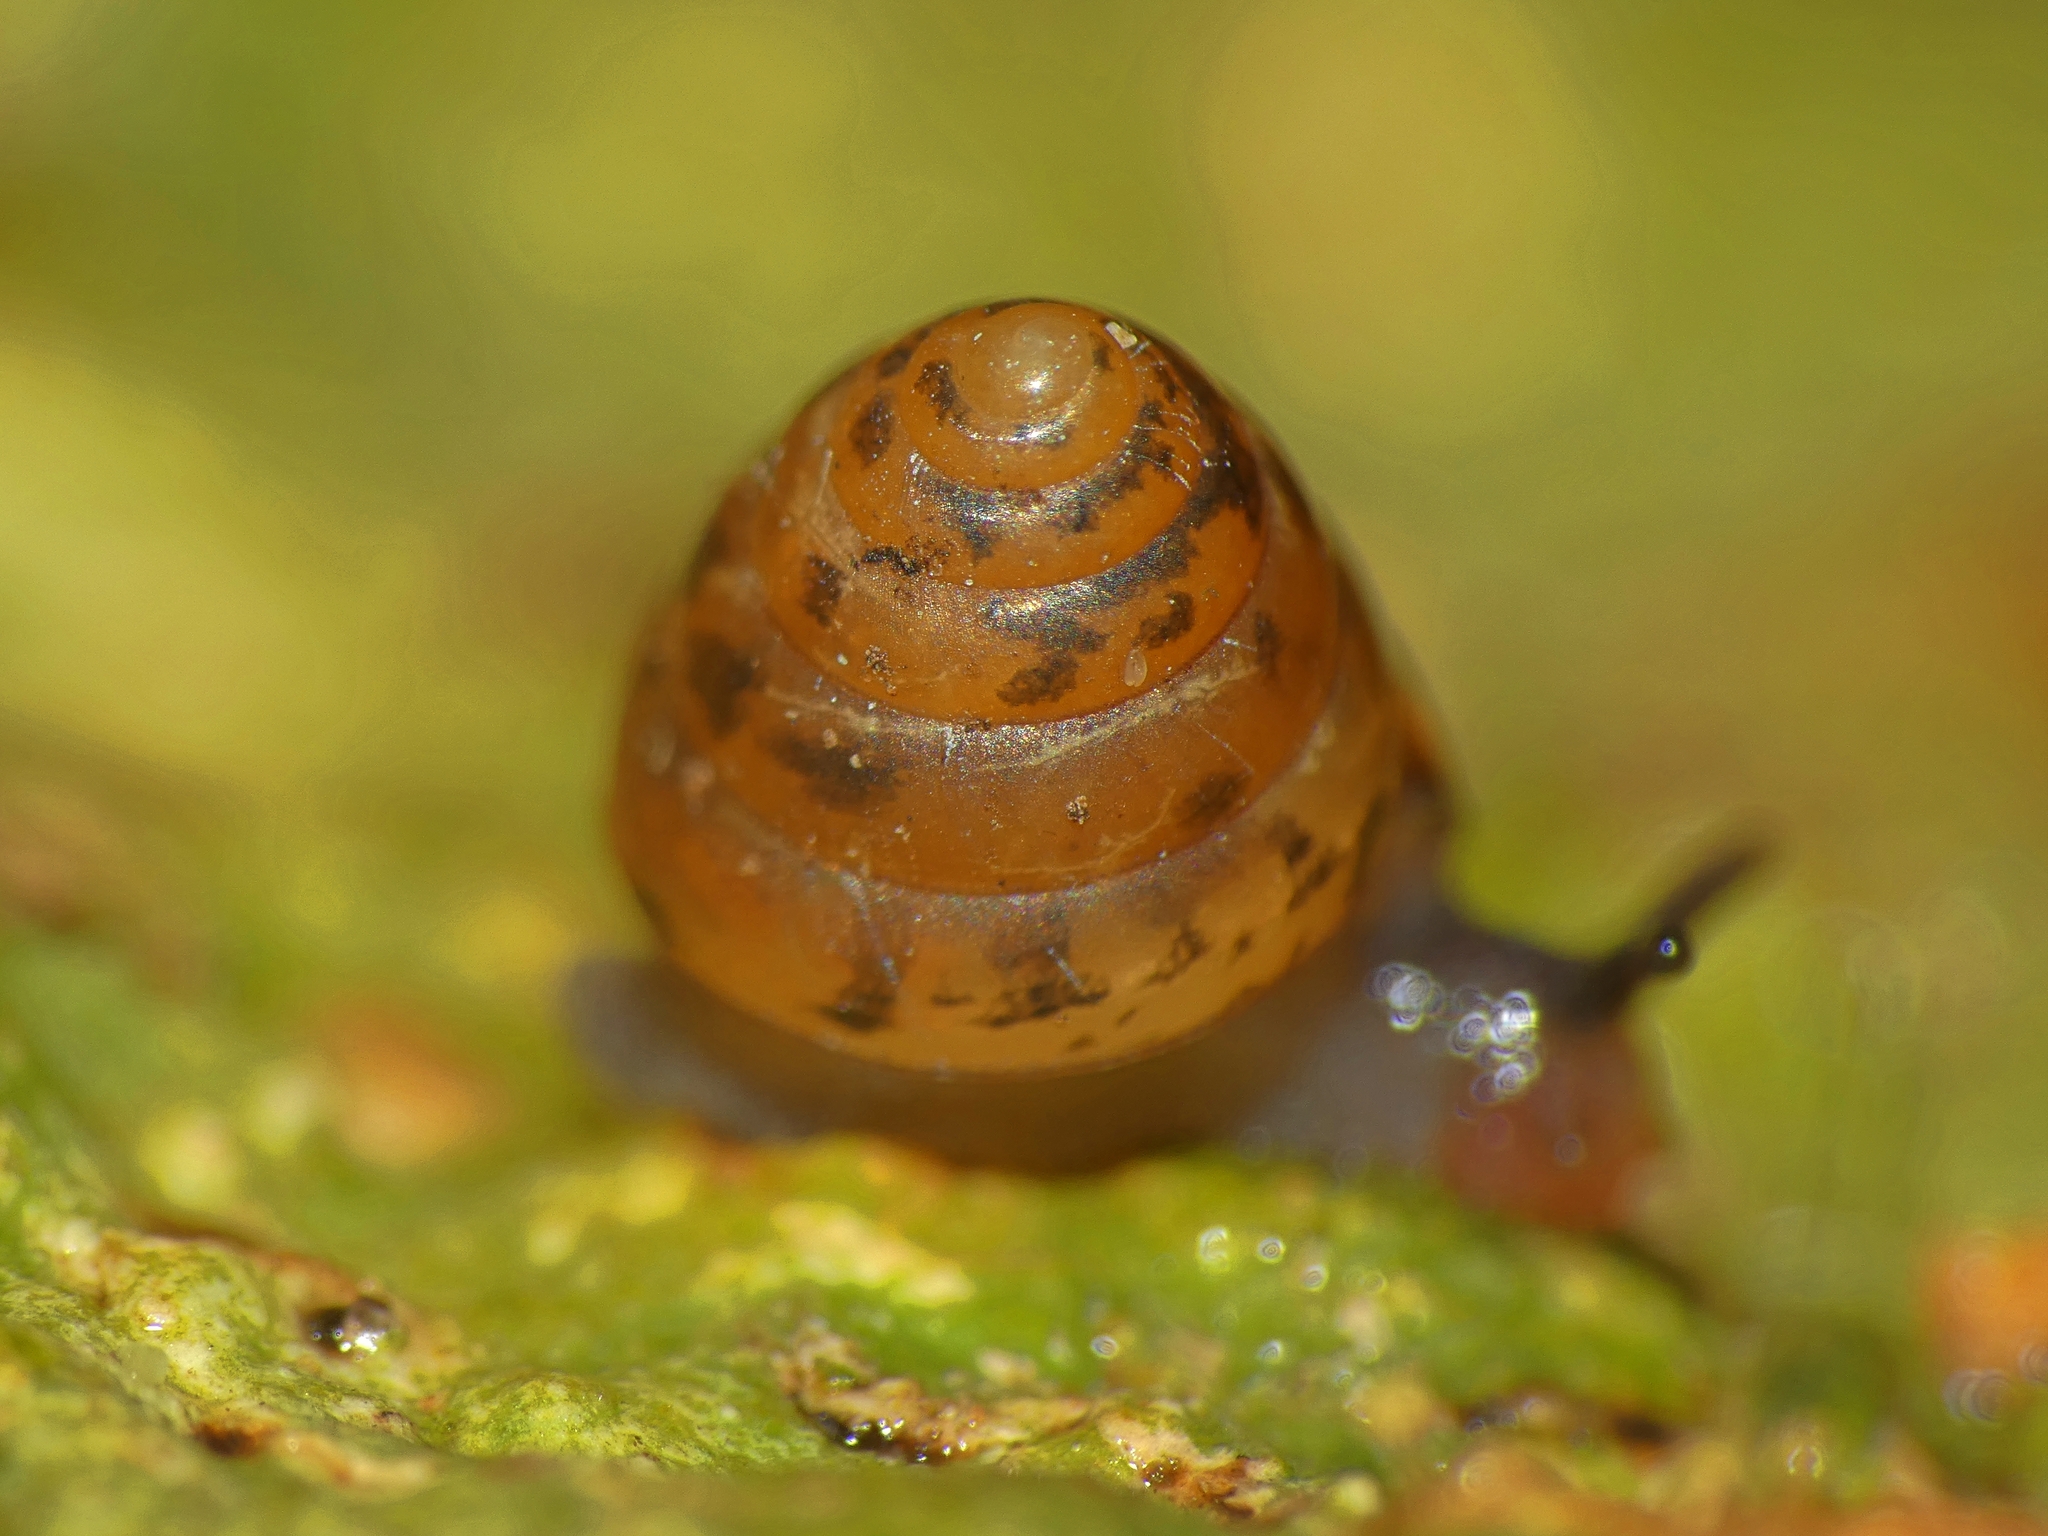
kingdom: Animalia
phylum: Mollusca
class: Gastropoda
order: Stylommatophora
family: Helicarionidae
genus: Sitala
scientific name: Sitala normalis
